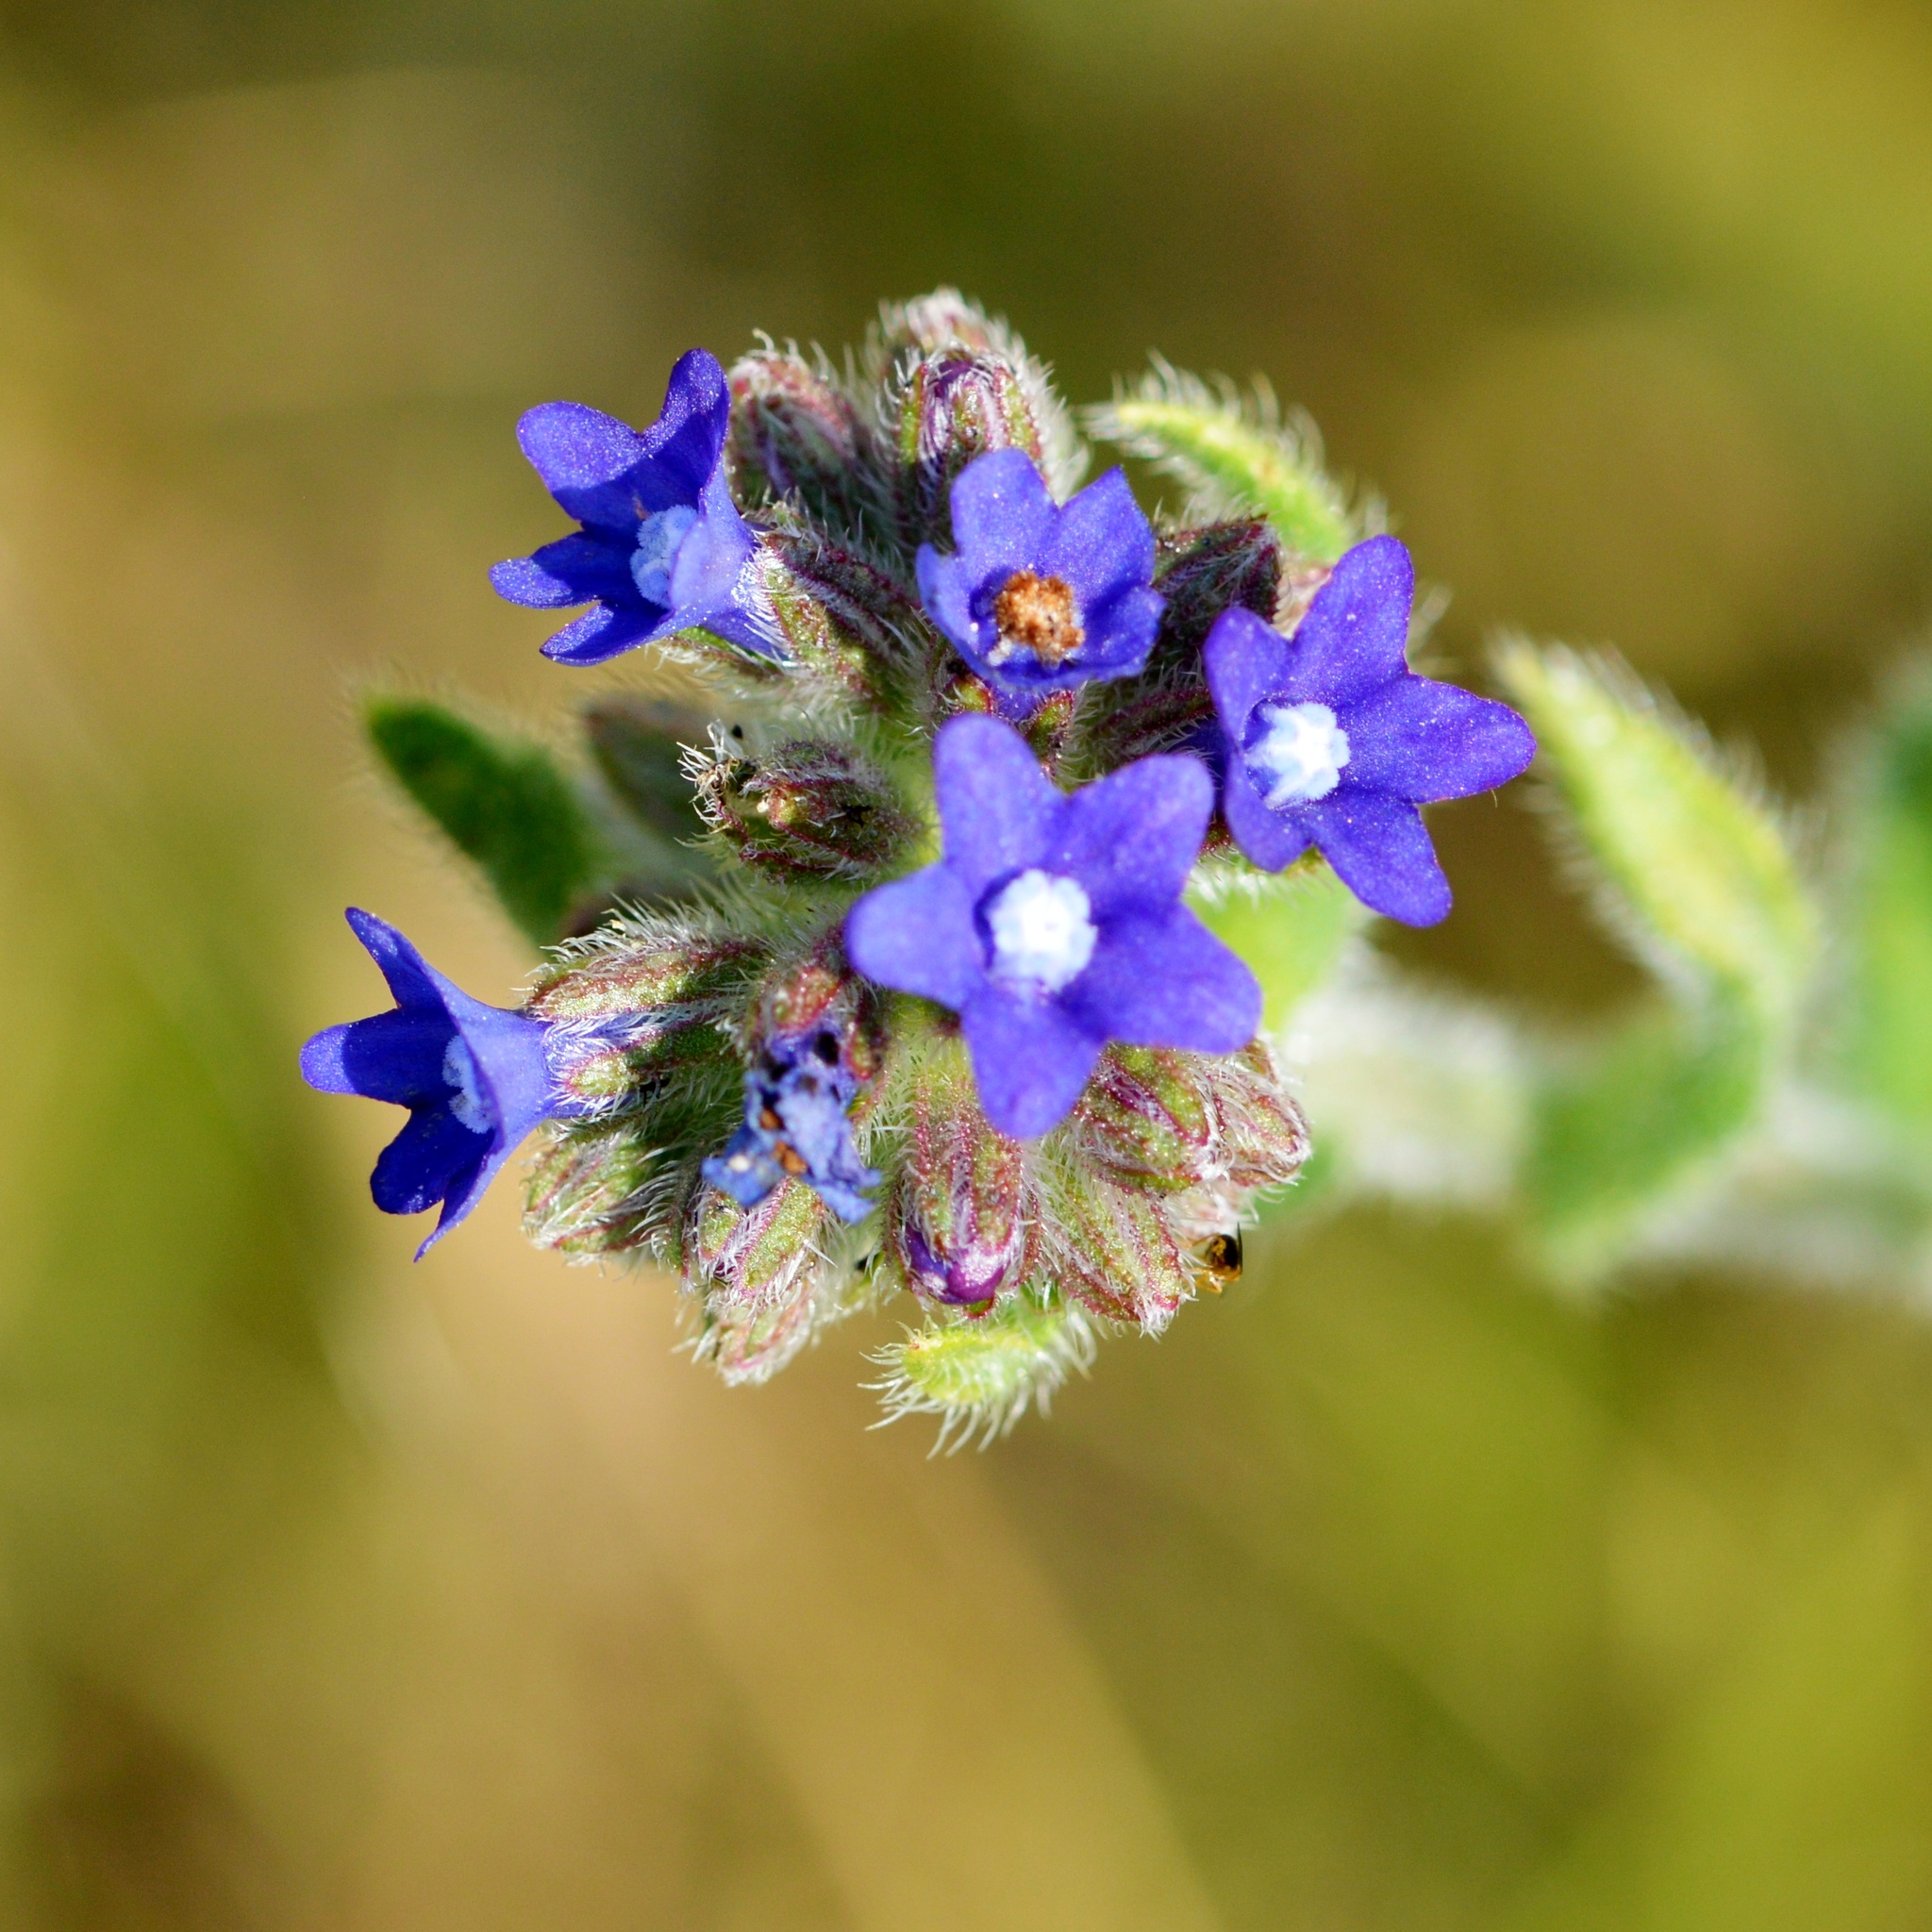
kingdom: Plantae
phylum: Tracheophyta
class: Magnoliopsida
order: Boraginales
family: Boraginaceae
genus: Anchusa
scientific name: Anchusa officinalis
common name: Alkanet
